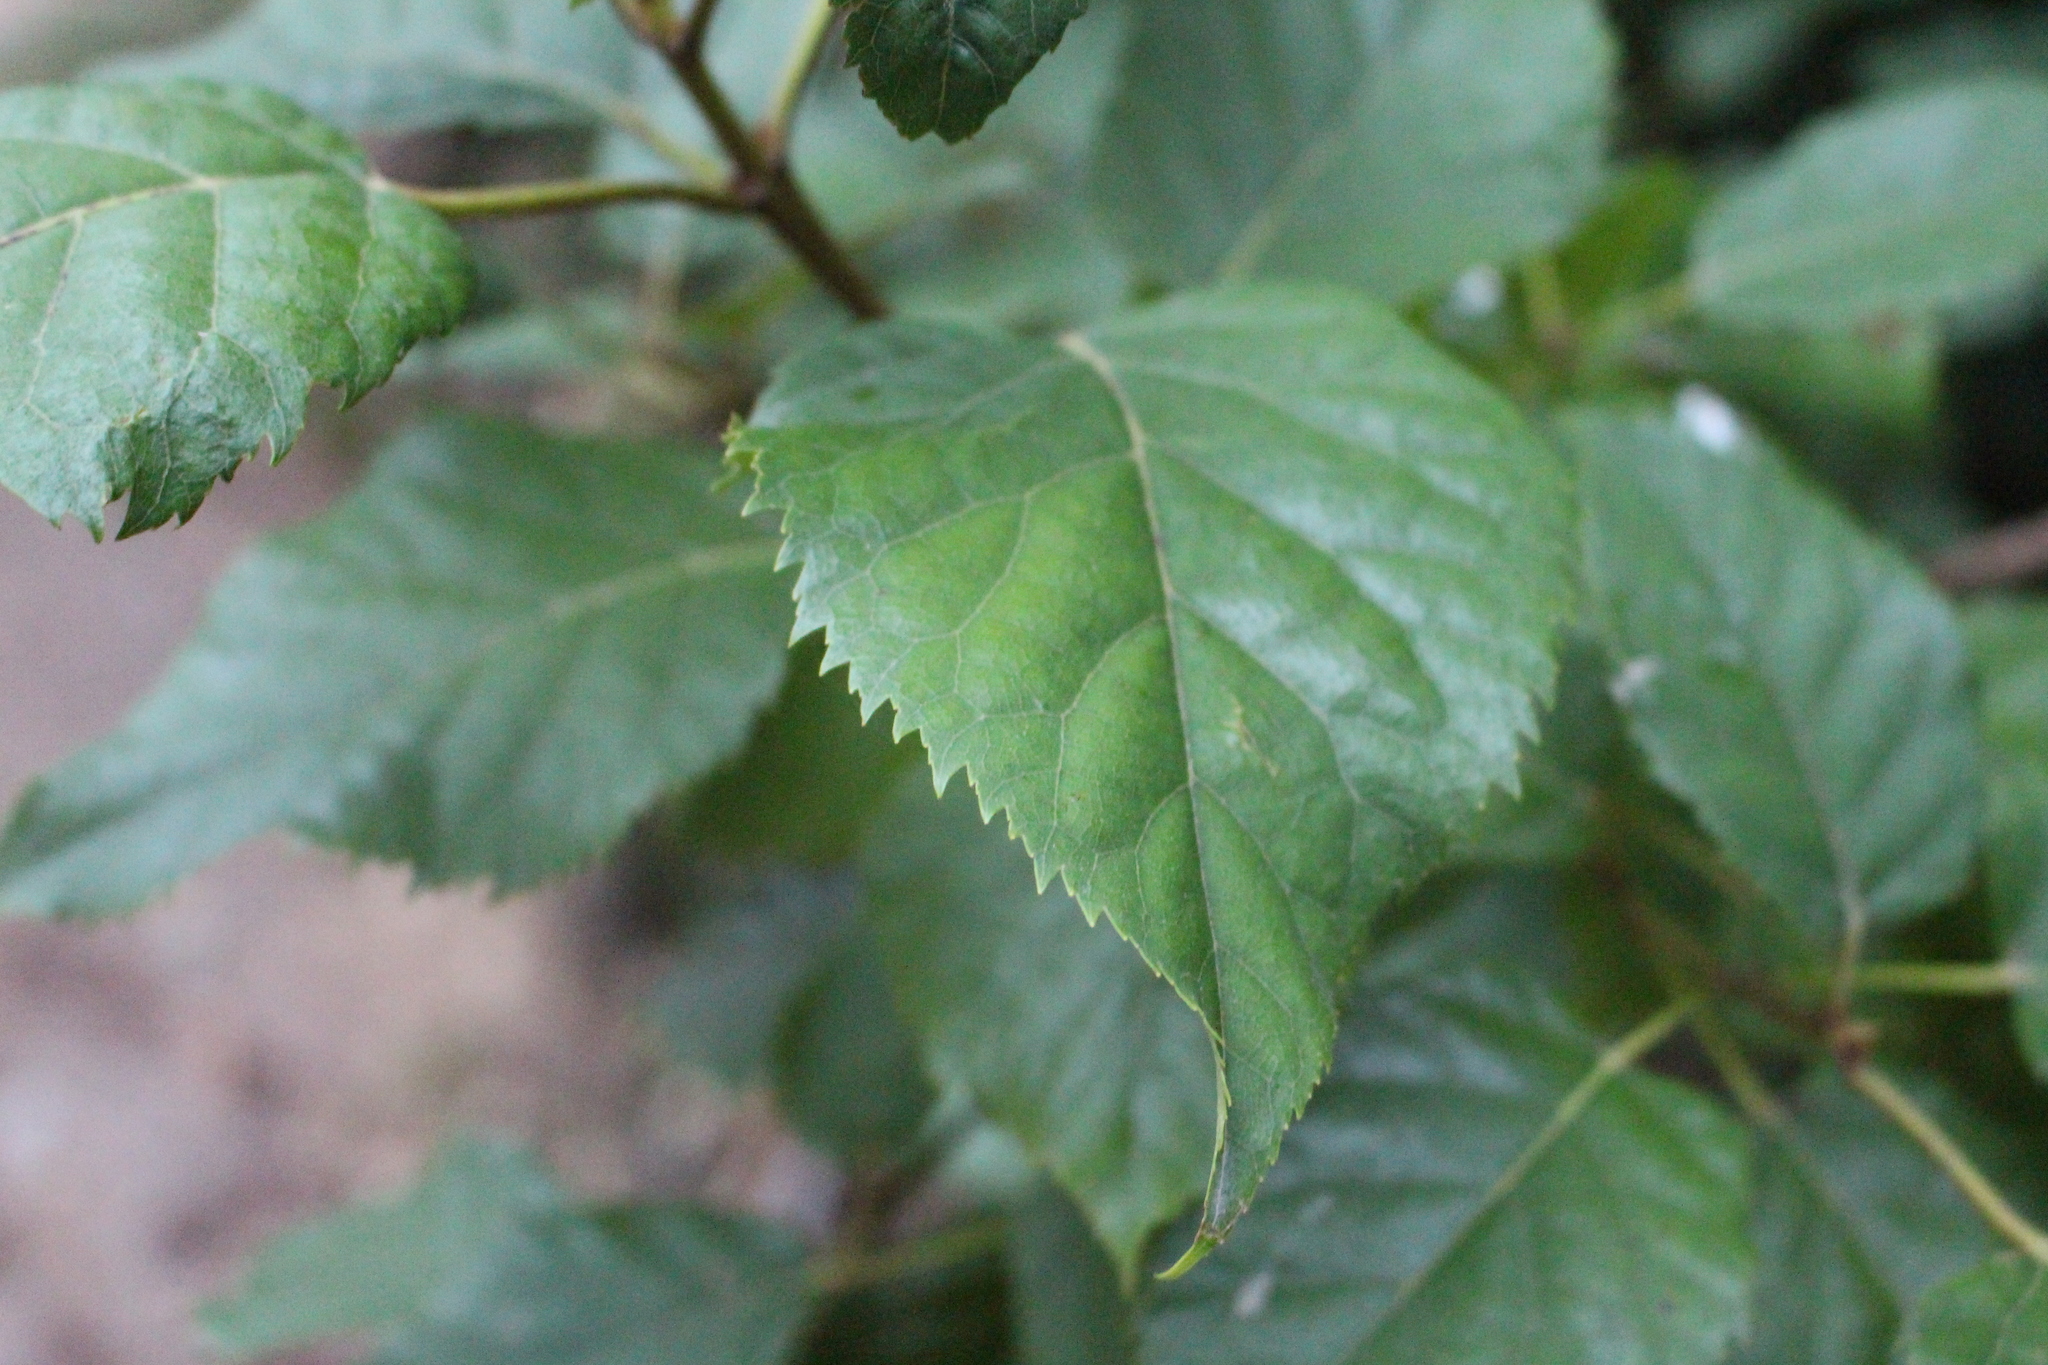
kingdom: Plantae
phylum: Tracheophyta
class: Magnoliopsida
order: Oxalidales
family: Elaeocarpaceae
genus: Aristotelia
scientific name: Aristotelia serrata
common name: New zealand wineberry
